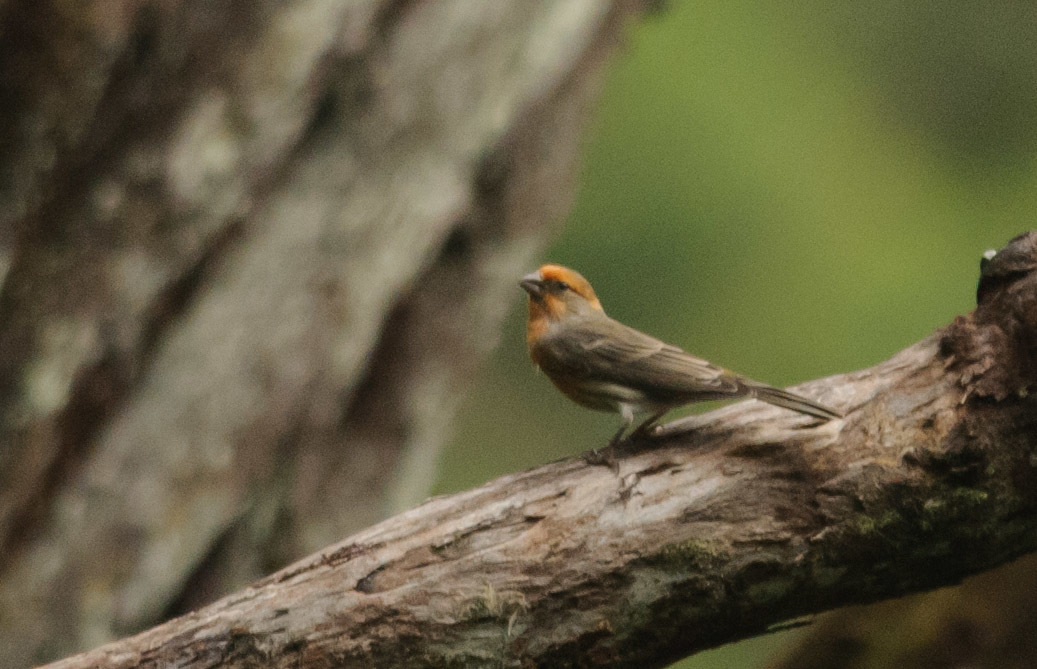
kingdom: Animalia
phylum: Chordata
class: Aves
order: Passeriformes
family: Fringillidae
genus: Haemorhous
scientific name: Haemorhous mexicanus
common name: House finch
